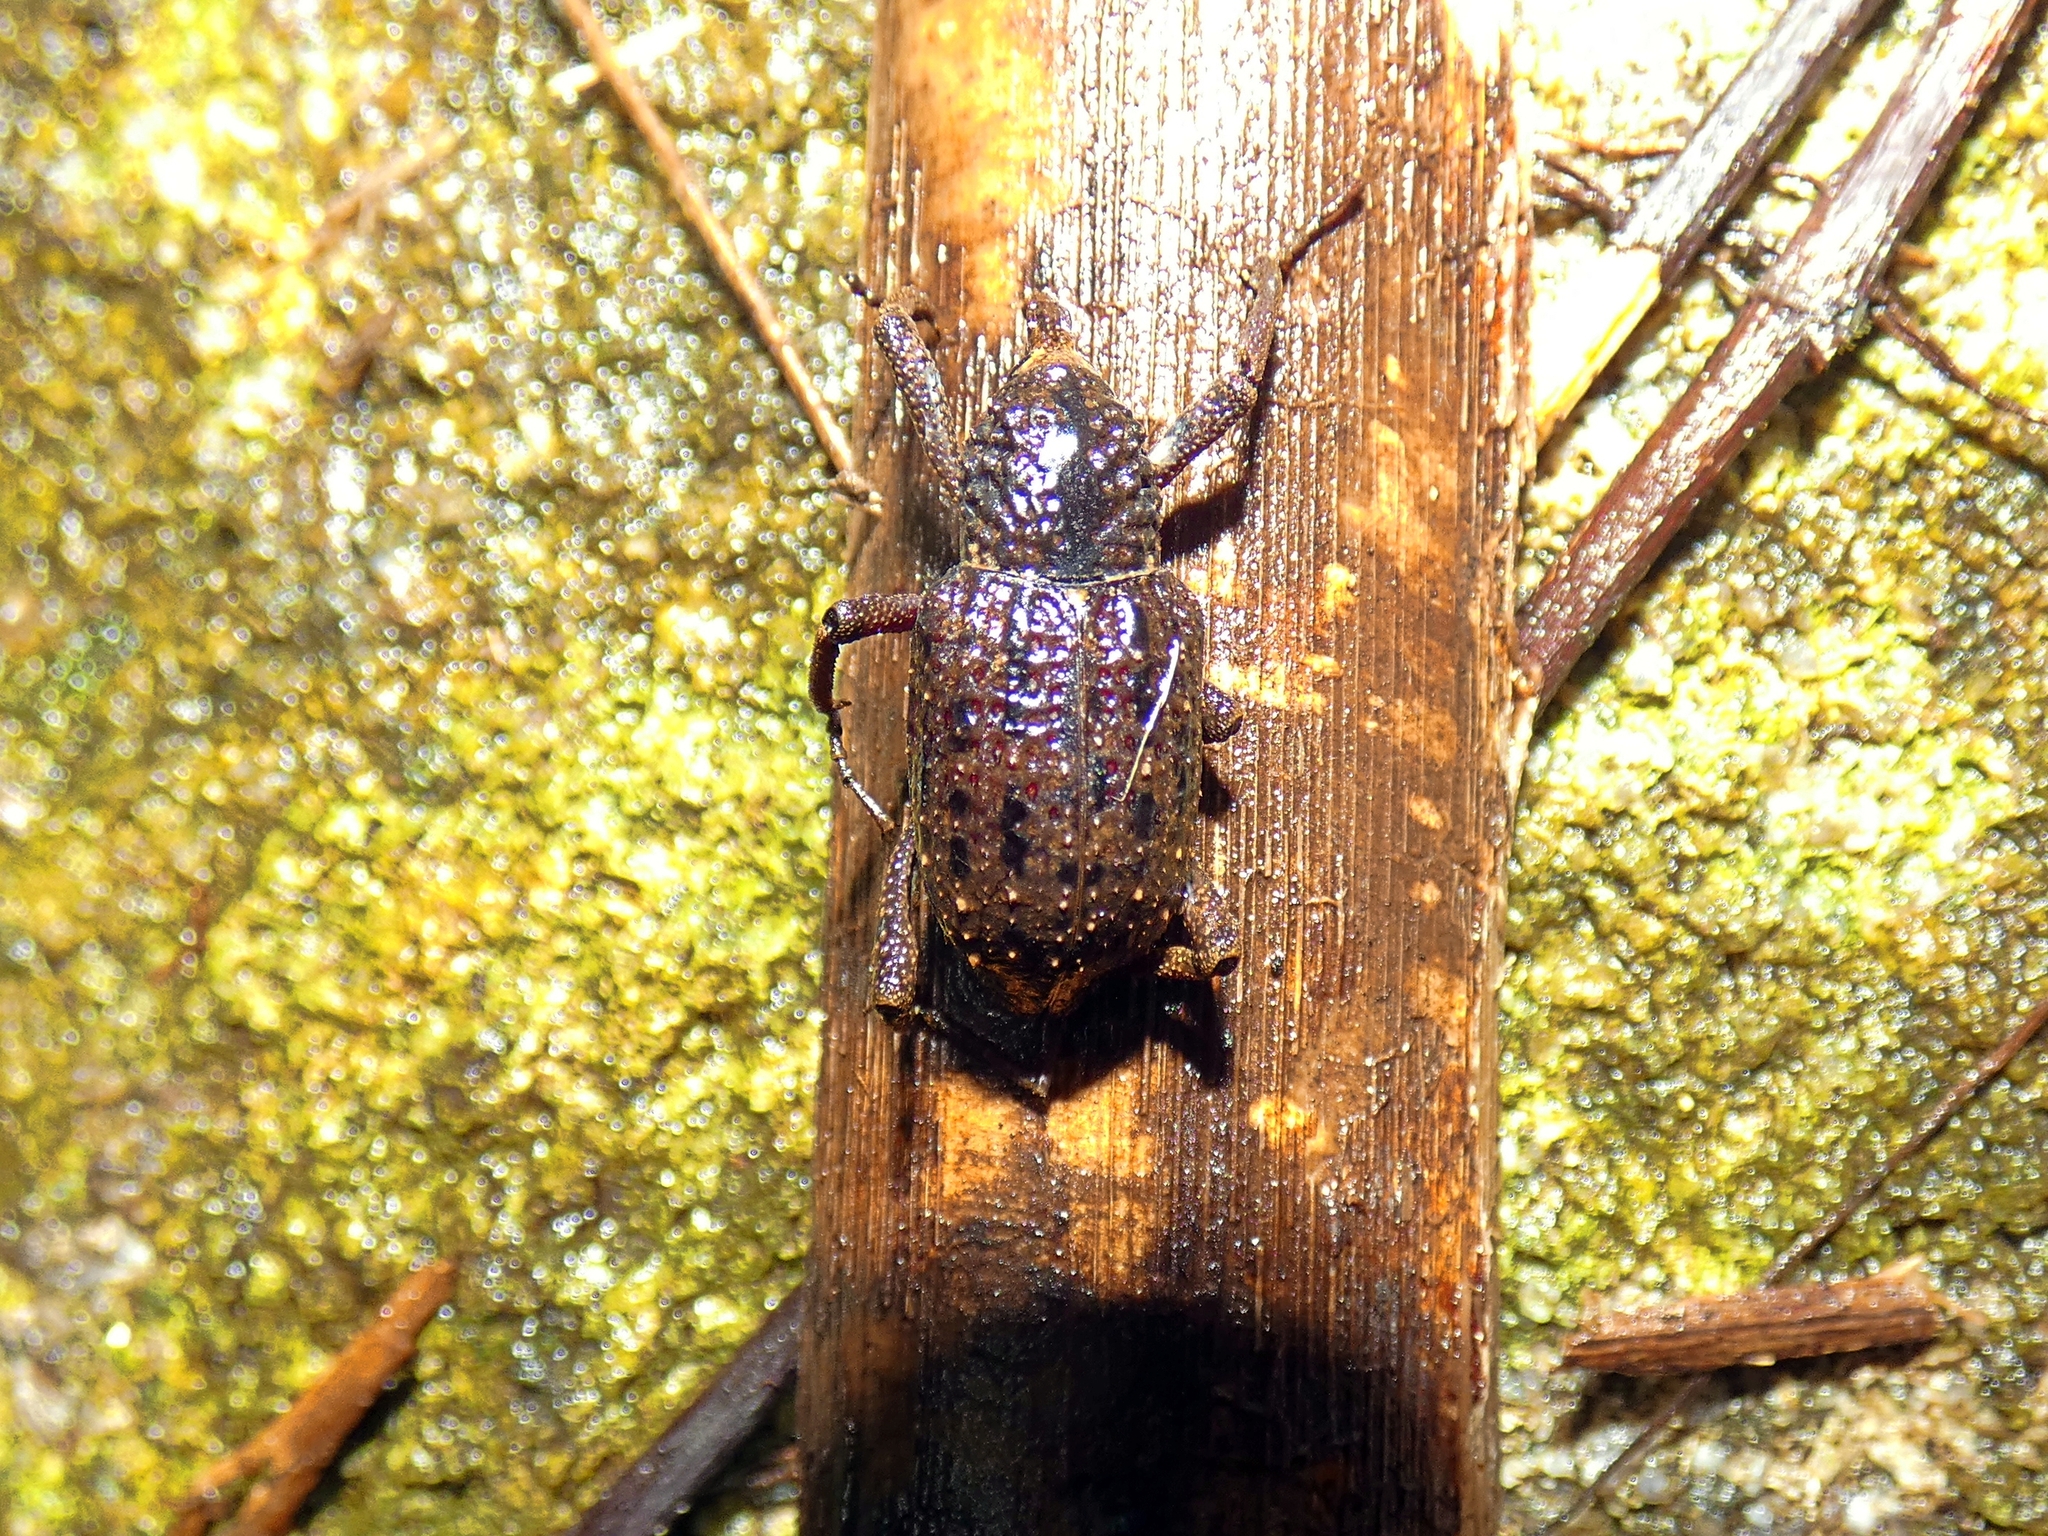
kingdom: Animalia
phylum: Arthropoda
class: Insecta
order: Coleoptera
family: Dryophthoridae
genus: Sipalinus
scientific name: Sipalinus gigas
